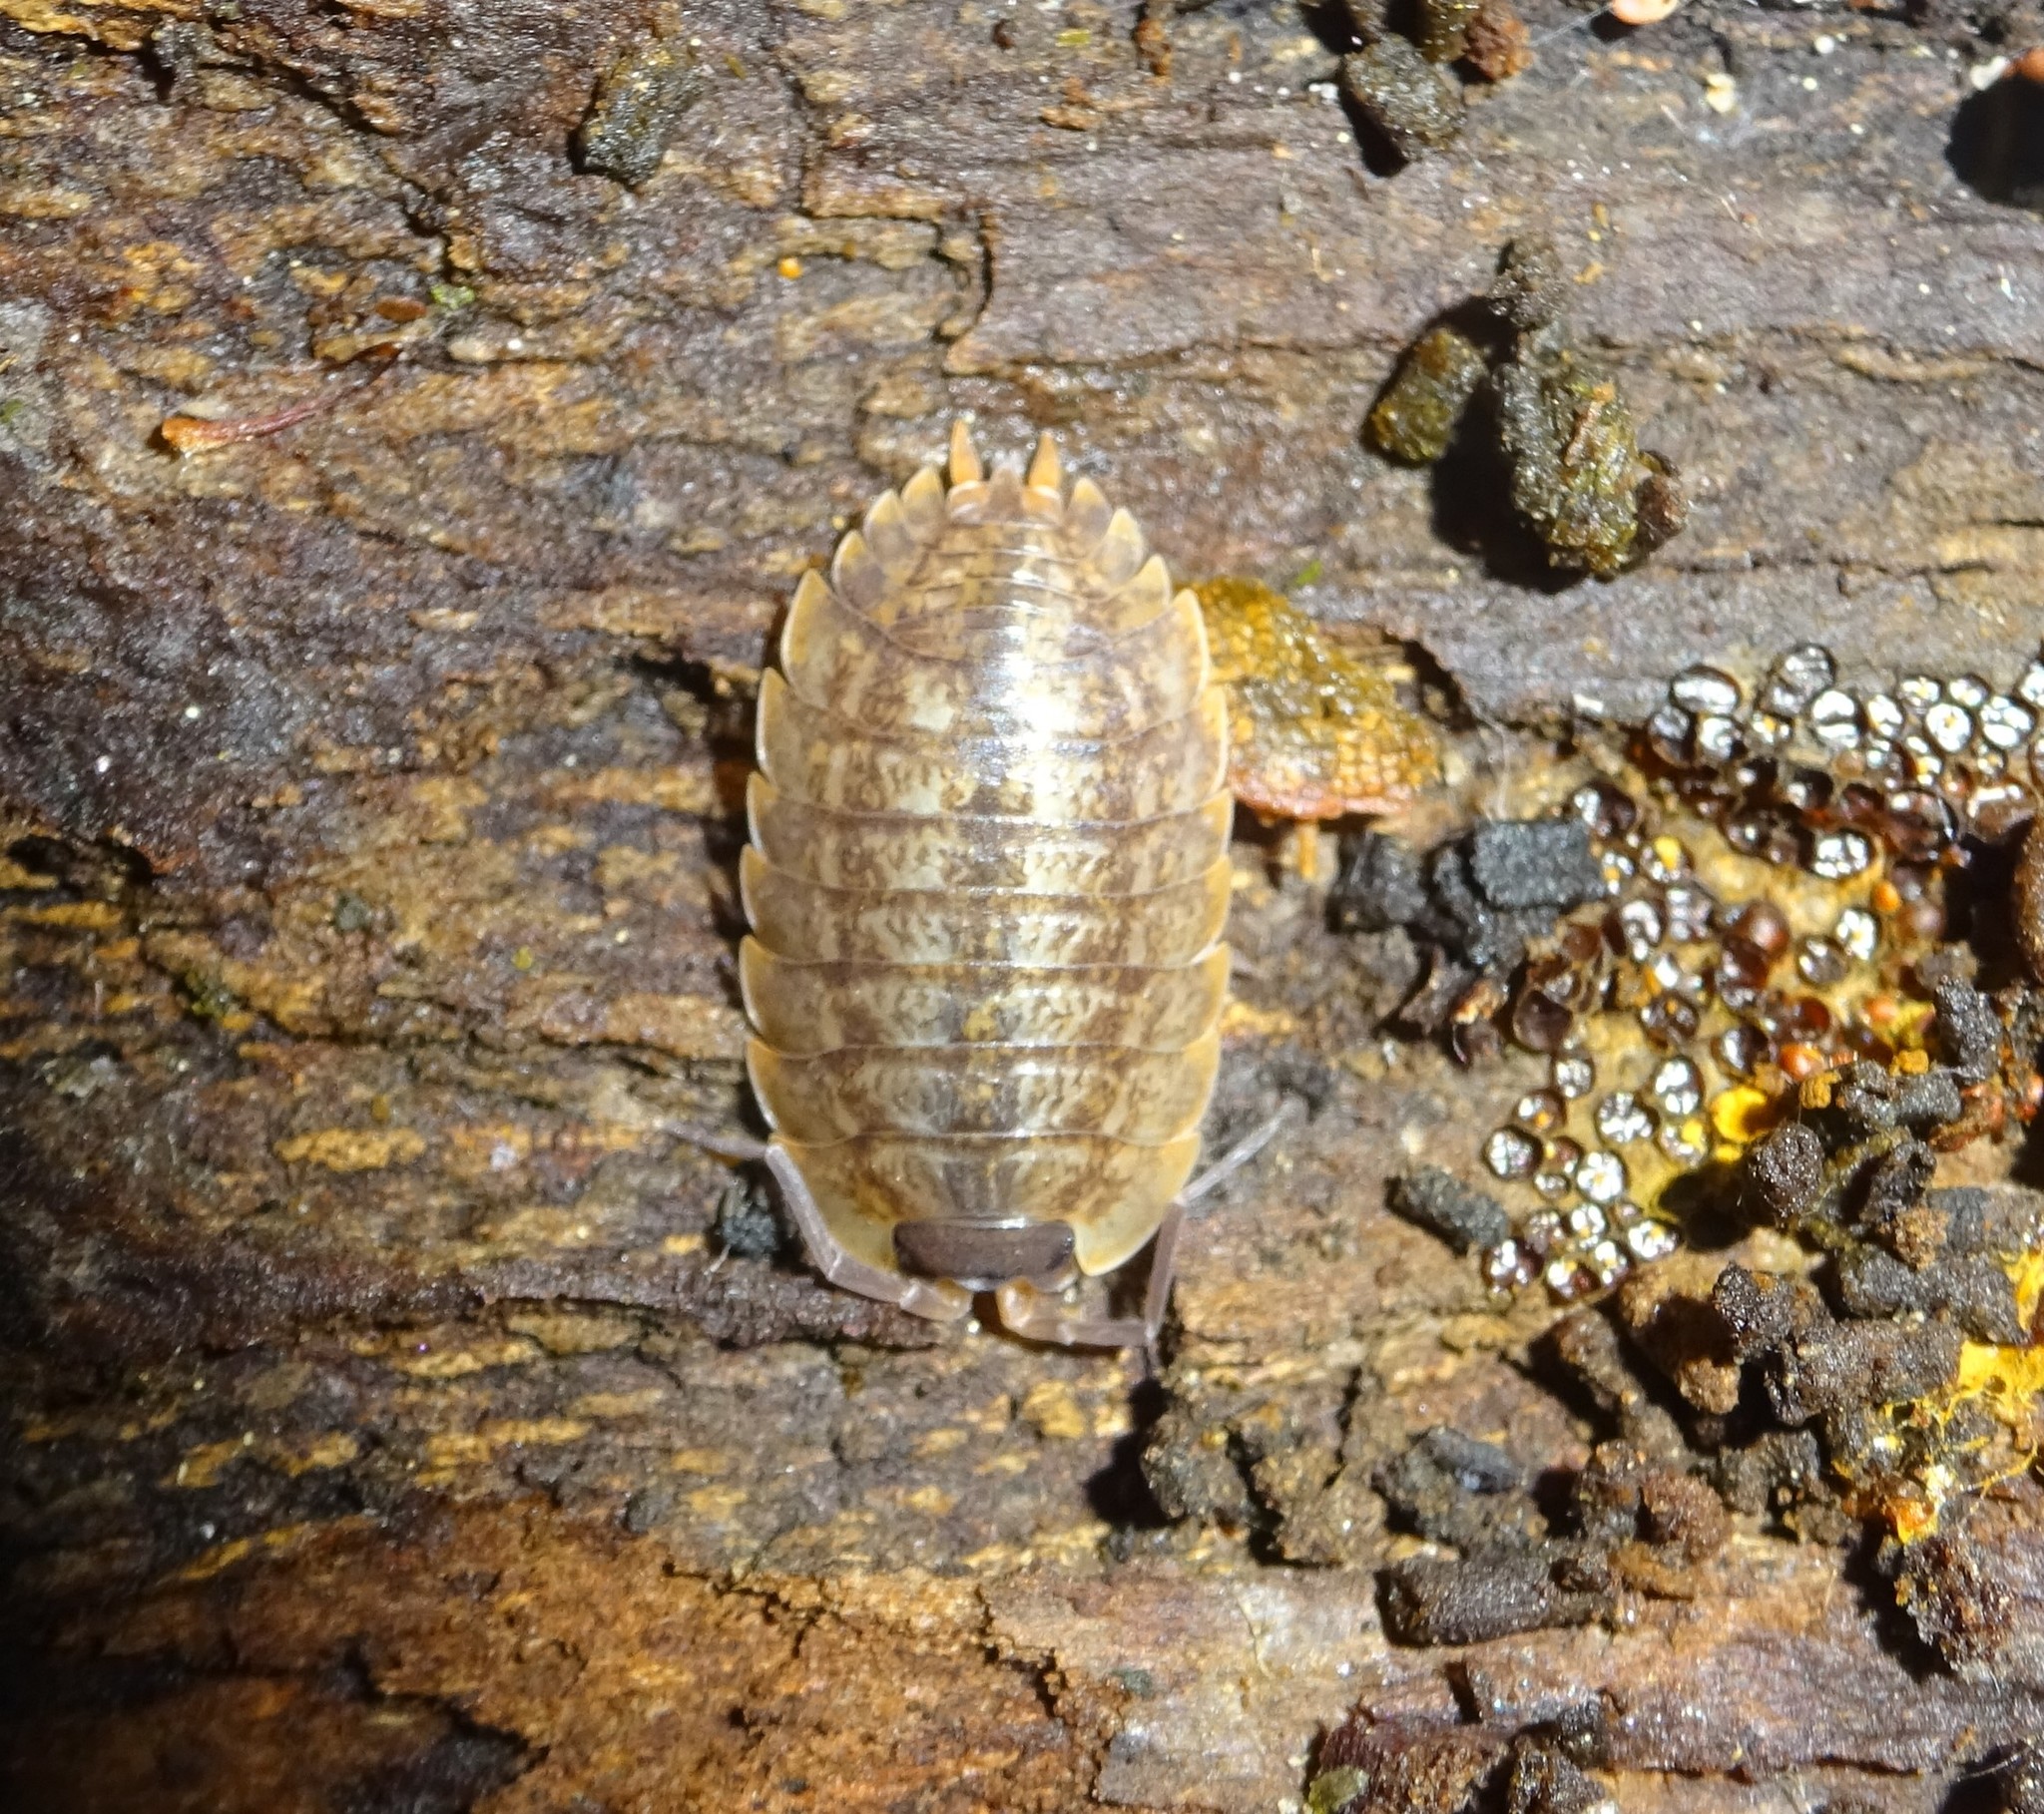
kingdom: Animalia
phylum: Arthropoda
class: Malacostraca
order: Isopoda
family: Porcellionidae
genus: Porcellio
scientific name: Porcellio montanus
